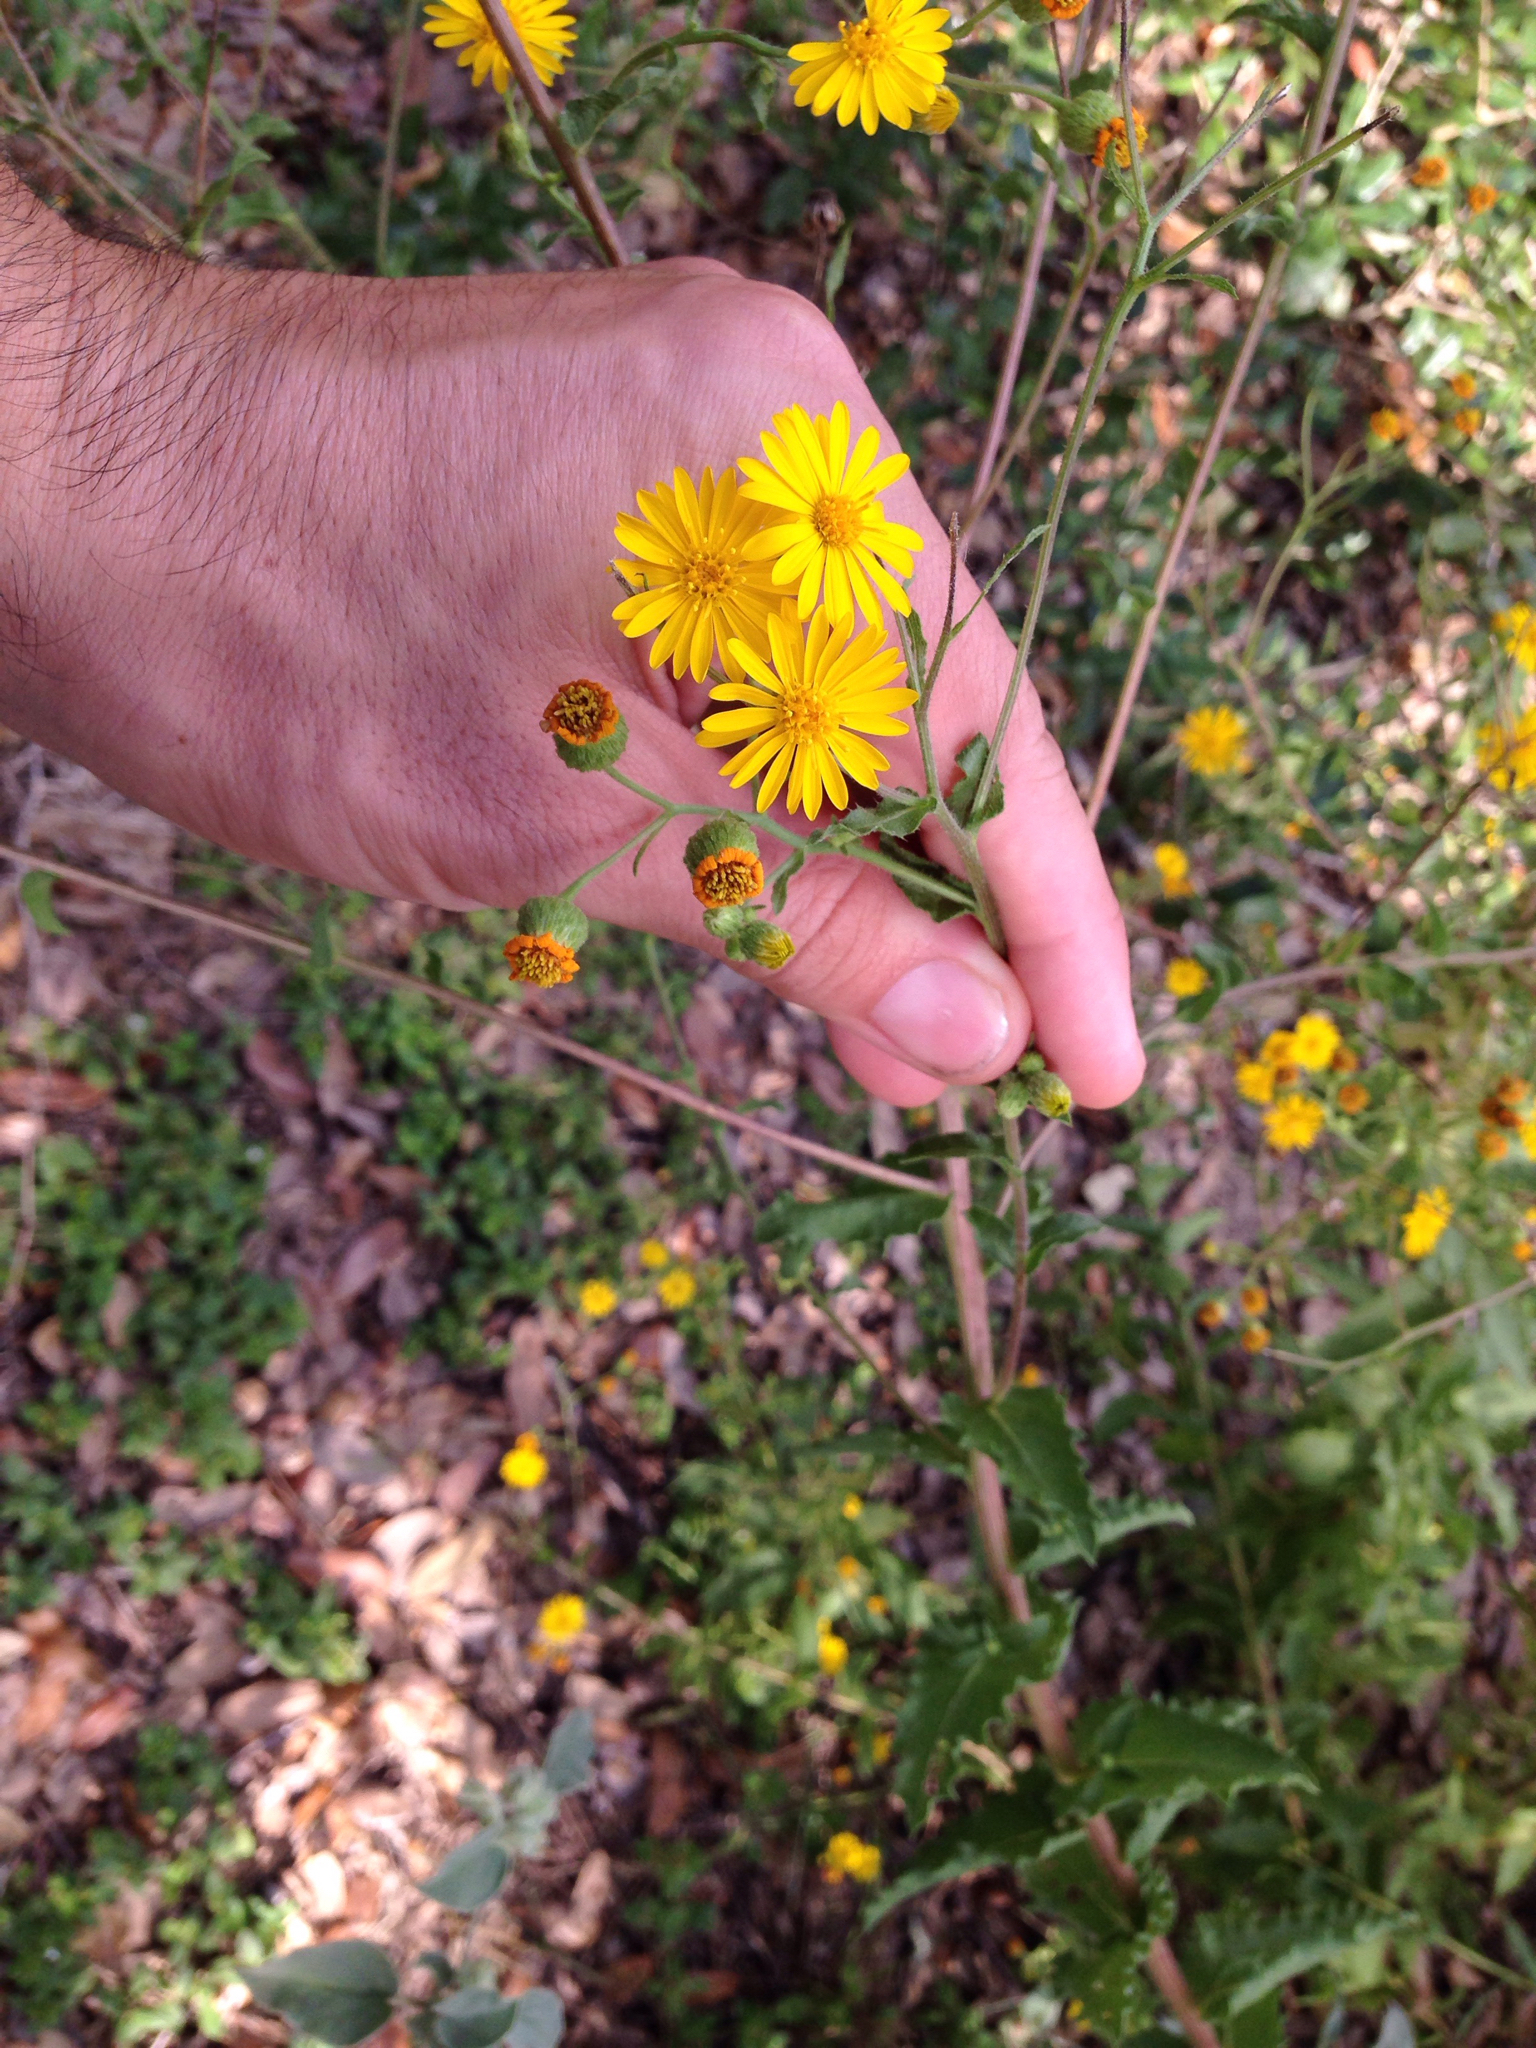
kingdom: Plantae
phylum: Tracheophyta
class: Magnoliopsida
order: Asterales
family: Asteraceae
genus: Heterotheca
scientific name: Heterotheca subaxillaris
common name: Camphorweed
